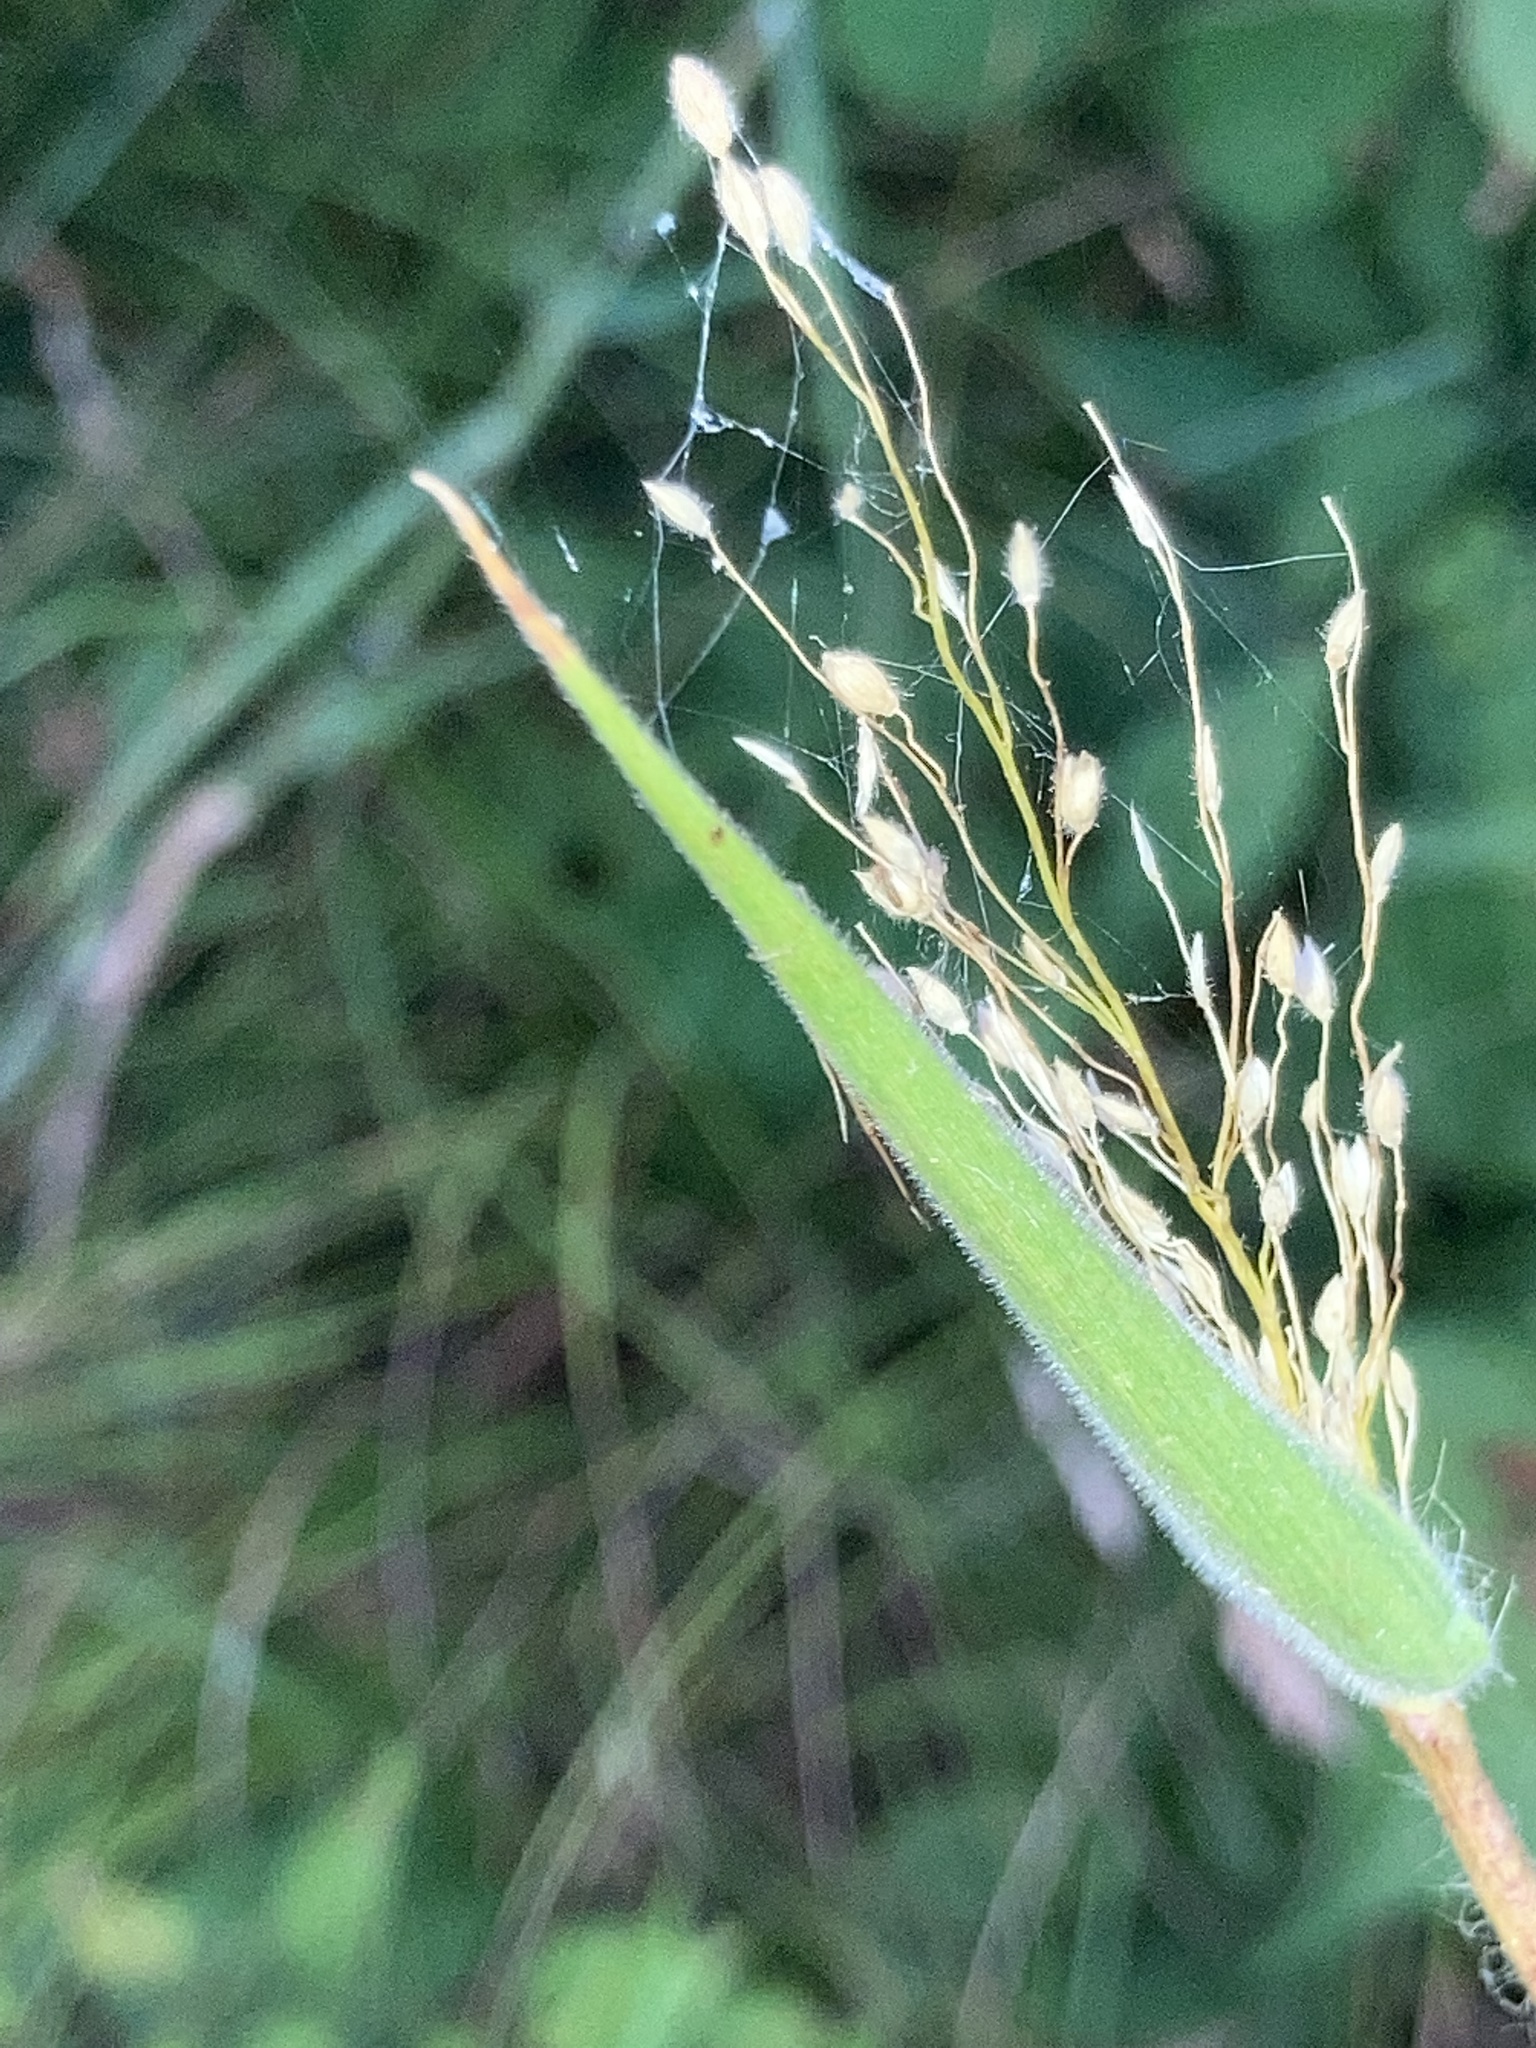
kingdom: Plantae
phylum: Tracheophyta
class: Liliopsida
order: Poales
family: Poaceae
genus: Dichanthelium
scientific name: Dichanthelium scoparium
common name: Velvety panic grass
